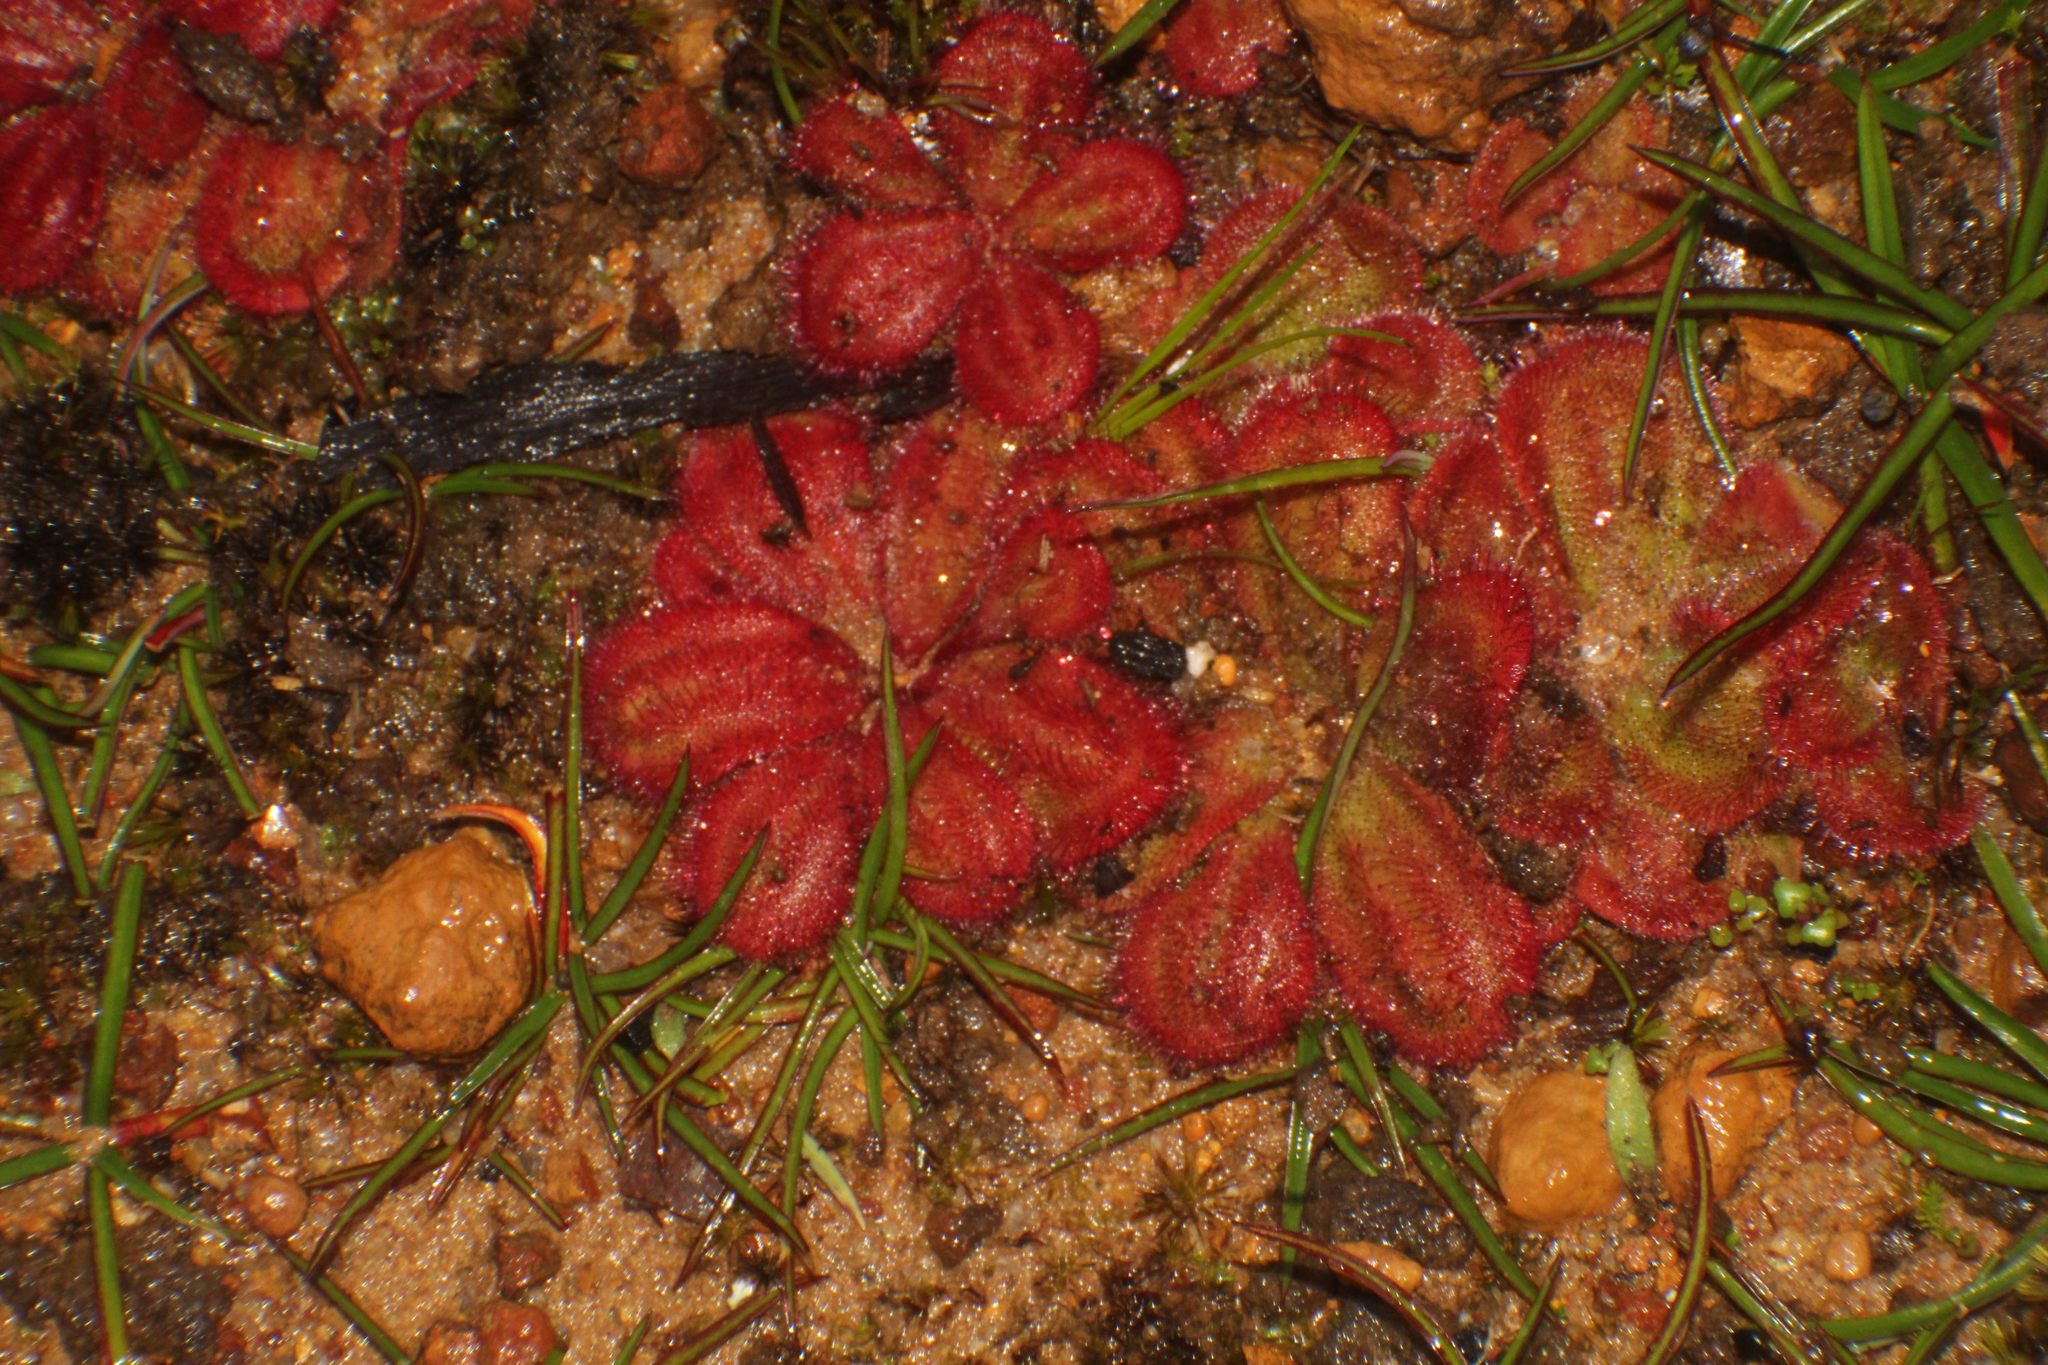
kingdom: Plantae
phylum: Tracheophyta
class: Magnoliopsida
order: Caryophyllales
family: Droseraceae
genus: Drosera
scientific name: Drosera erythrorhiza
